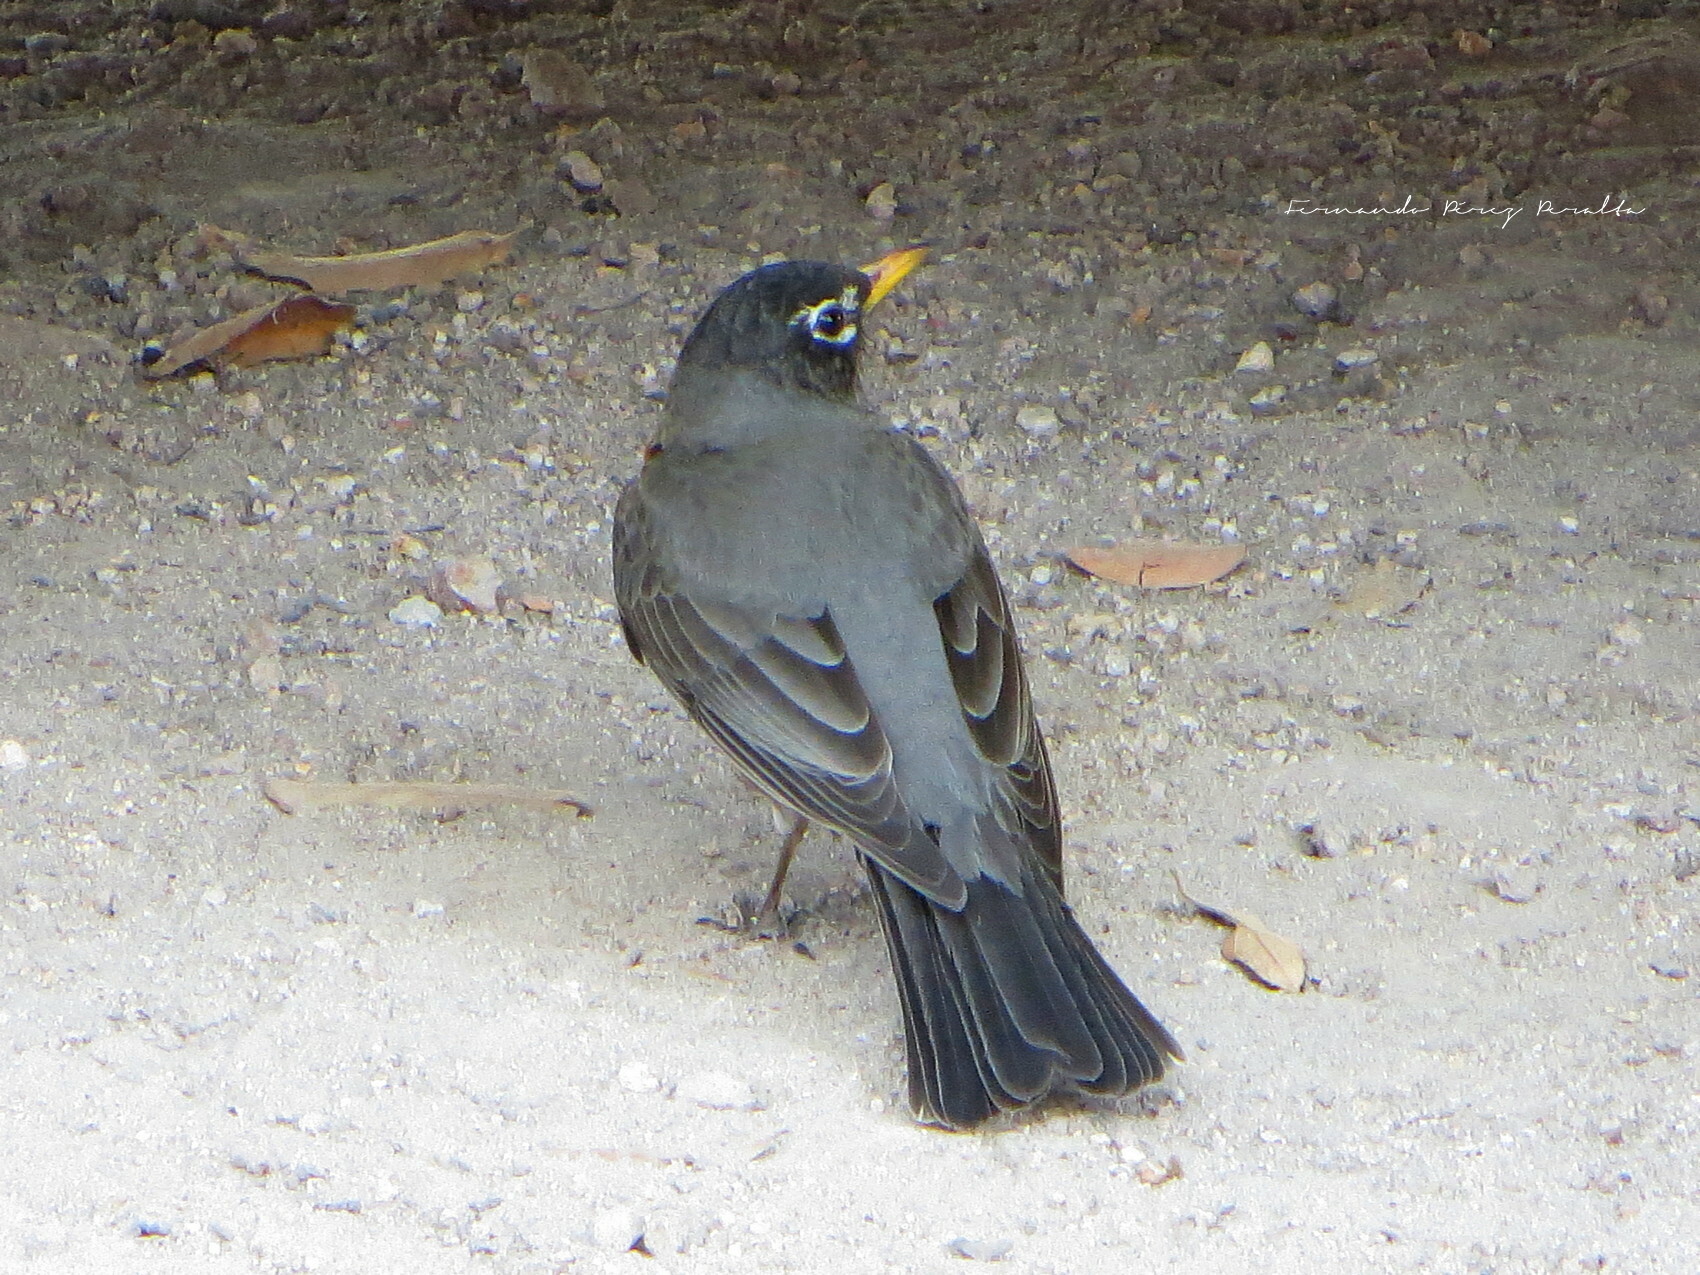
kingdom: Animalia
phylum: Chordata
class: Aves
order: Passeriformes
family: Turdidae
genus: Turdus
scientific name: Turdus migratorius
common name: American robin
